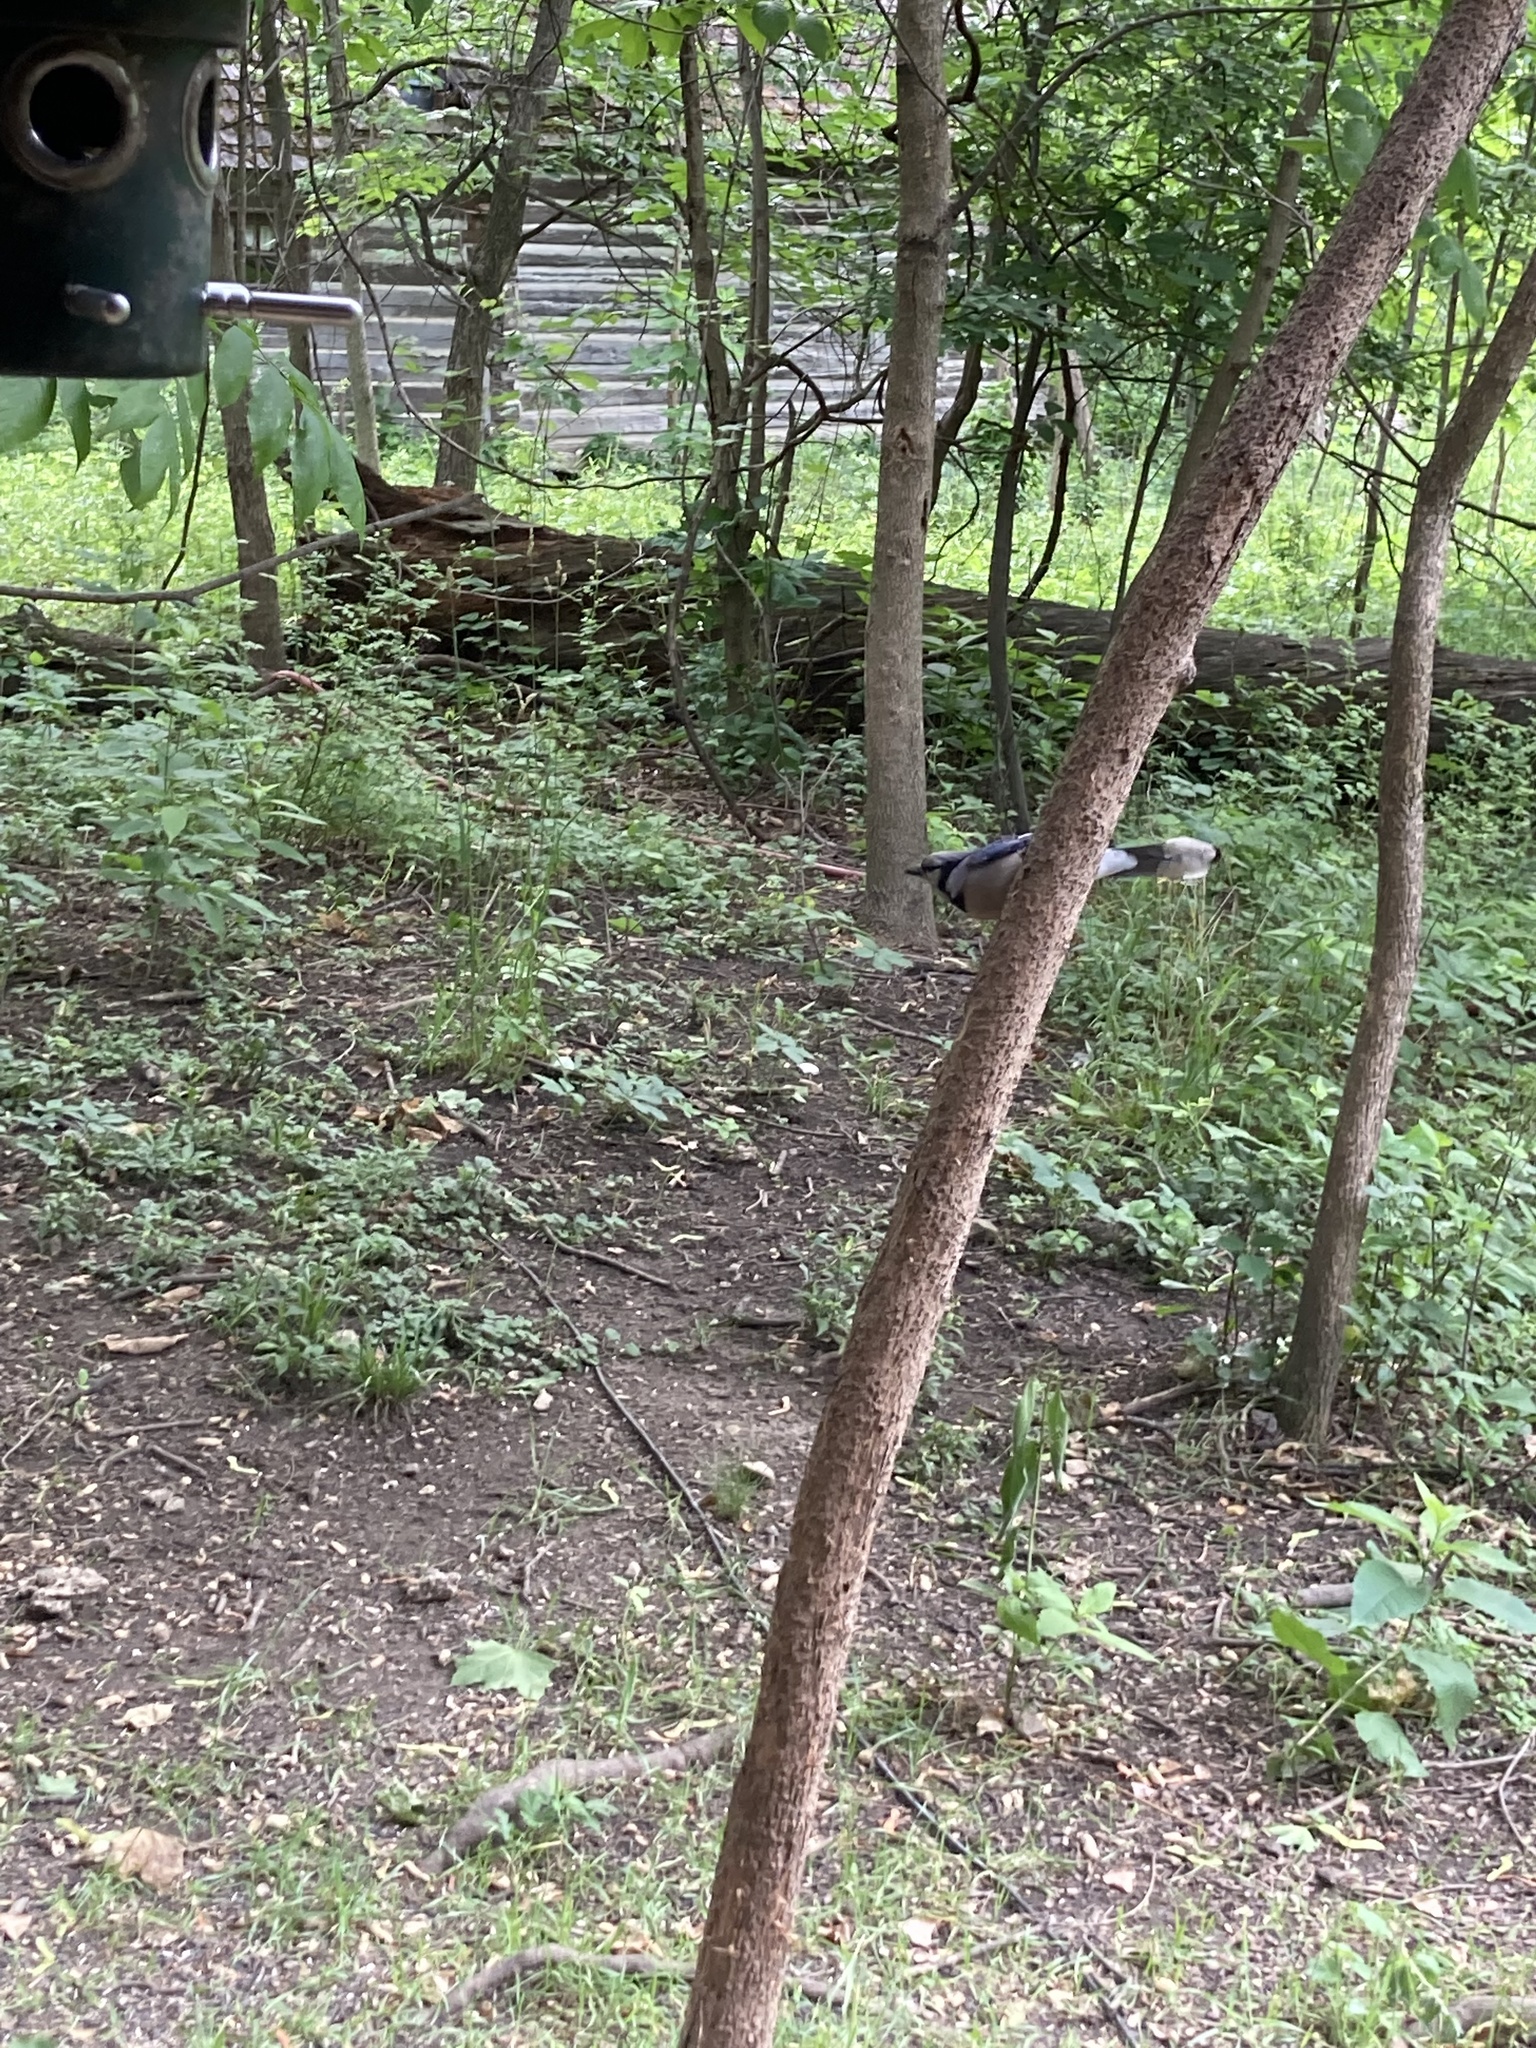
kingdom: Animalia
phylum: Chordata
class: Aves
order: Passeriformes
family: Corvidae
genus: Cyanocitta
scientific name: Cyanocitta cristata
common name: Blue jay
